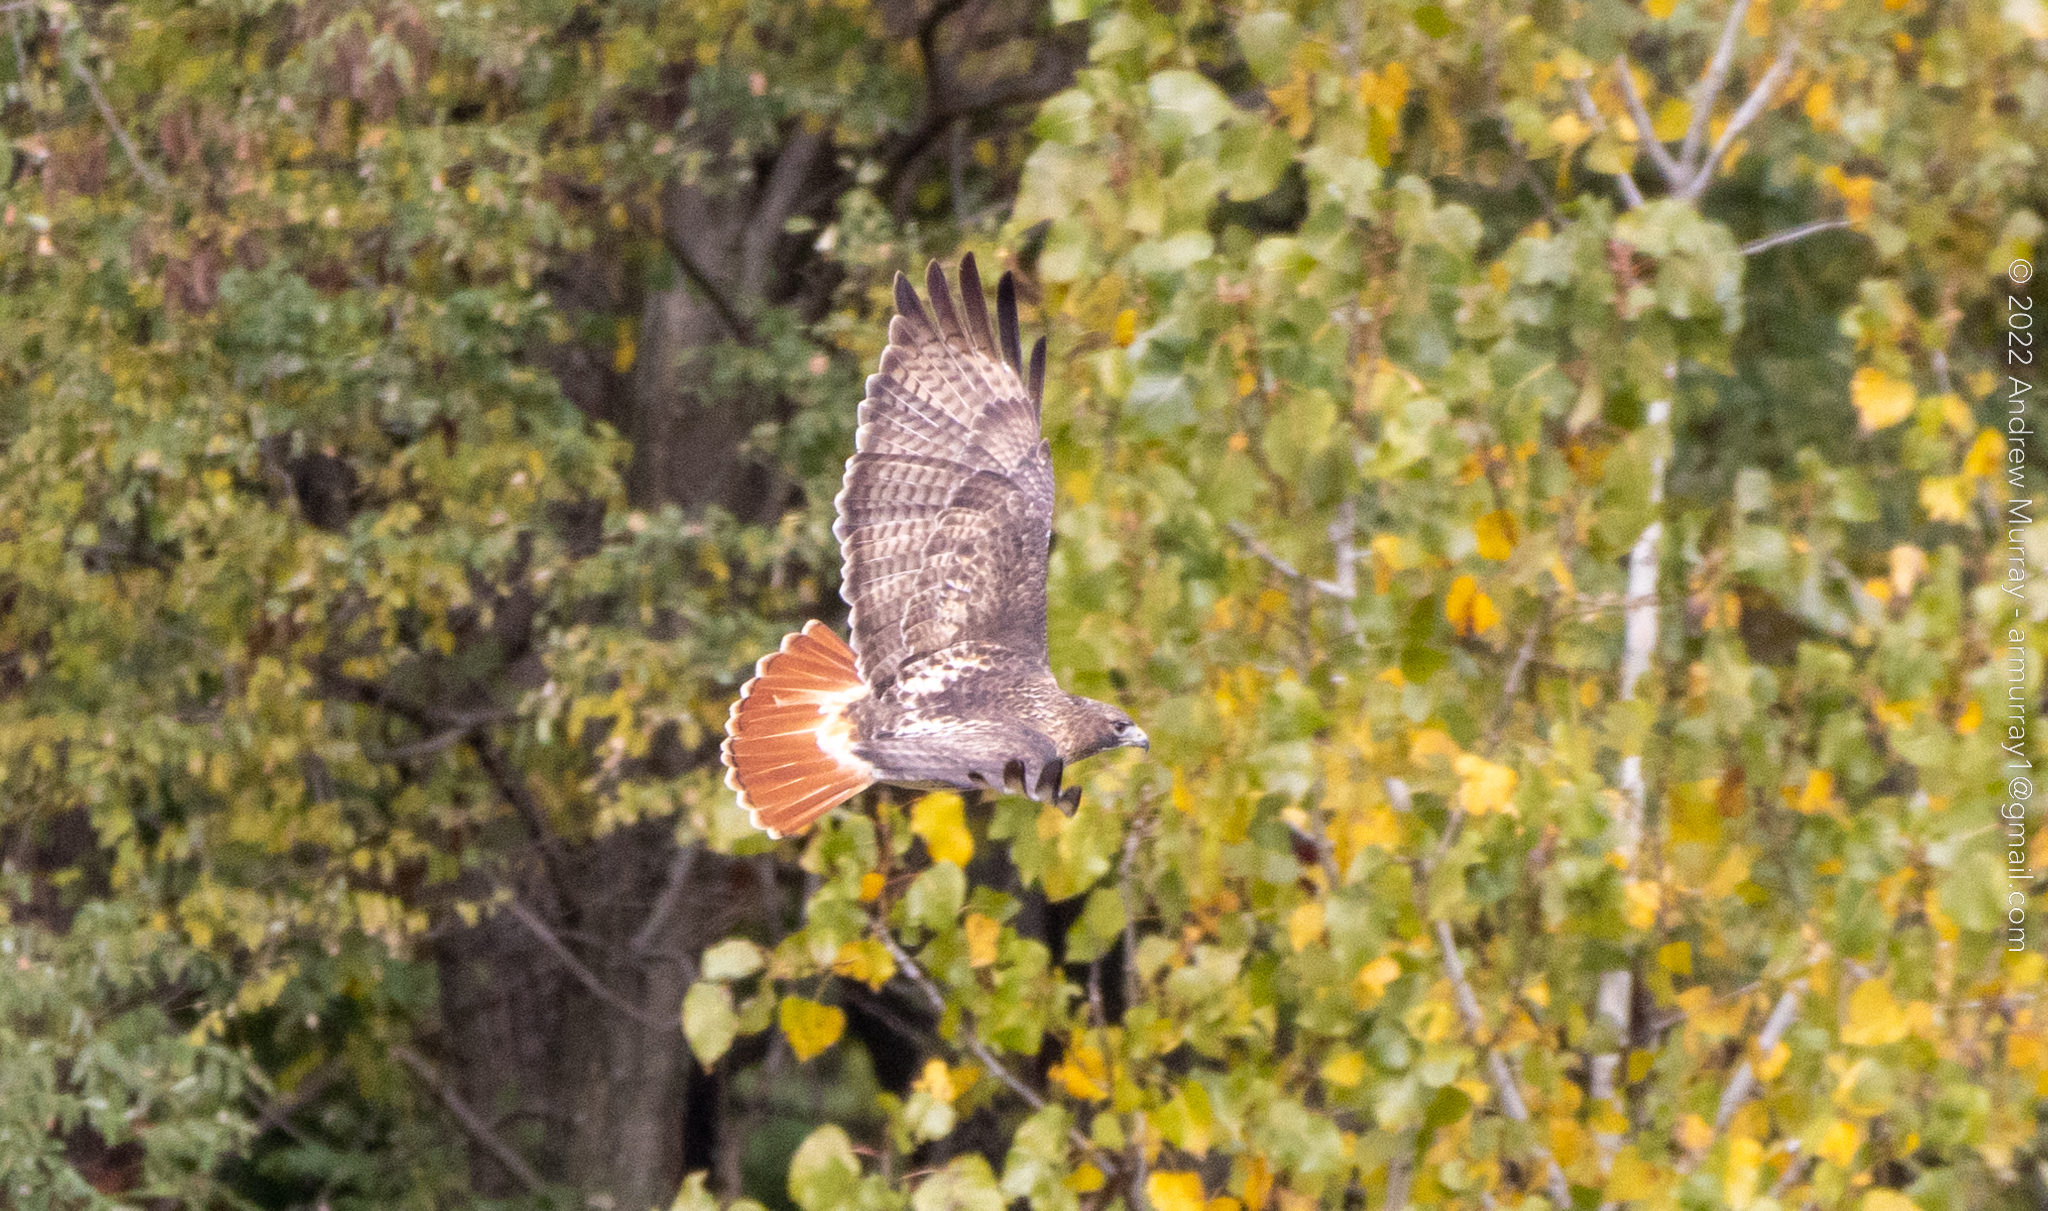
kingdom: Animalia
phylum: Chordata
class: Aves
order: Accipitriformes
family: Accipitridae
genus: Buteo
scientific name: Buteo jamaicensis
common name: Red-tailed hawk
